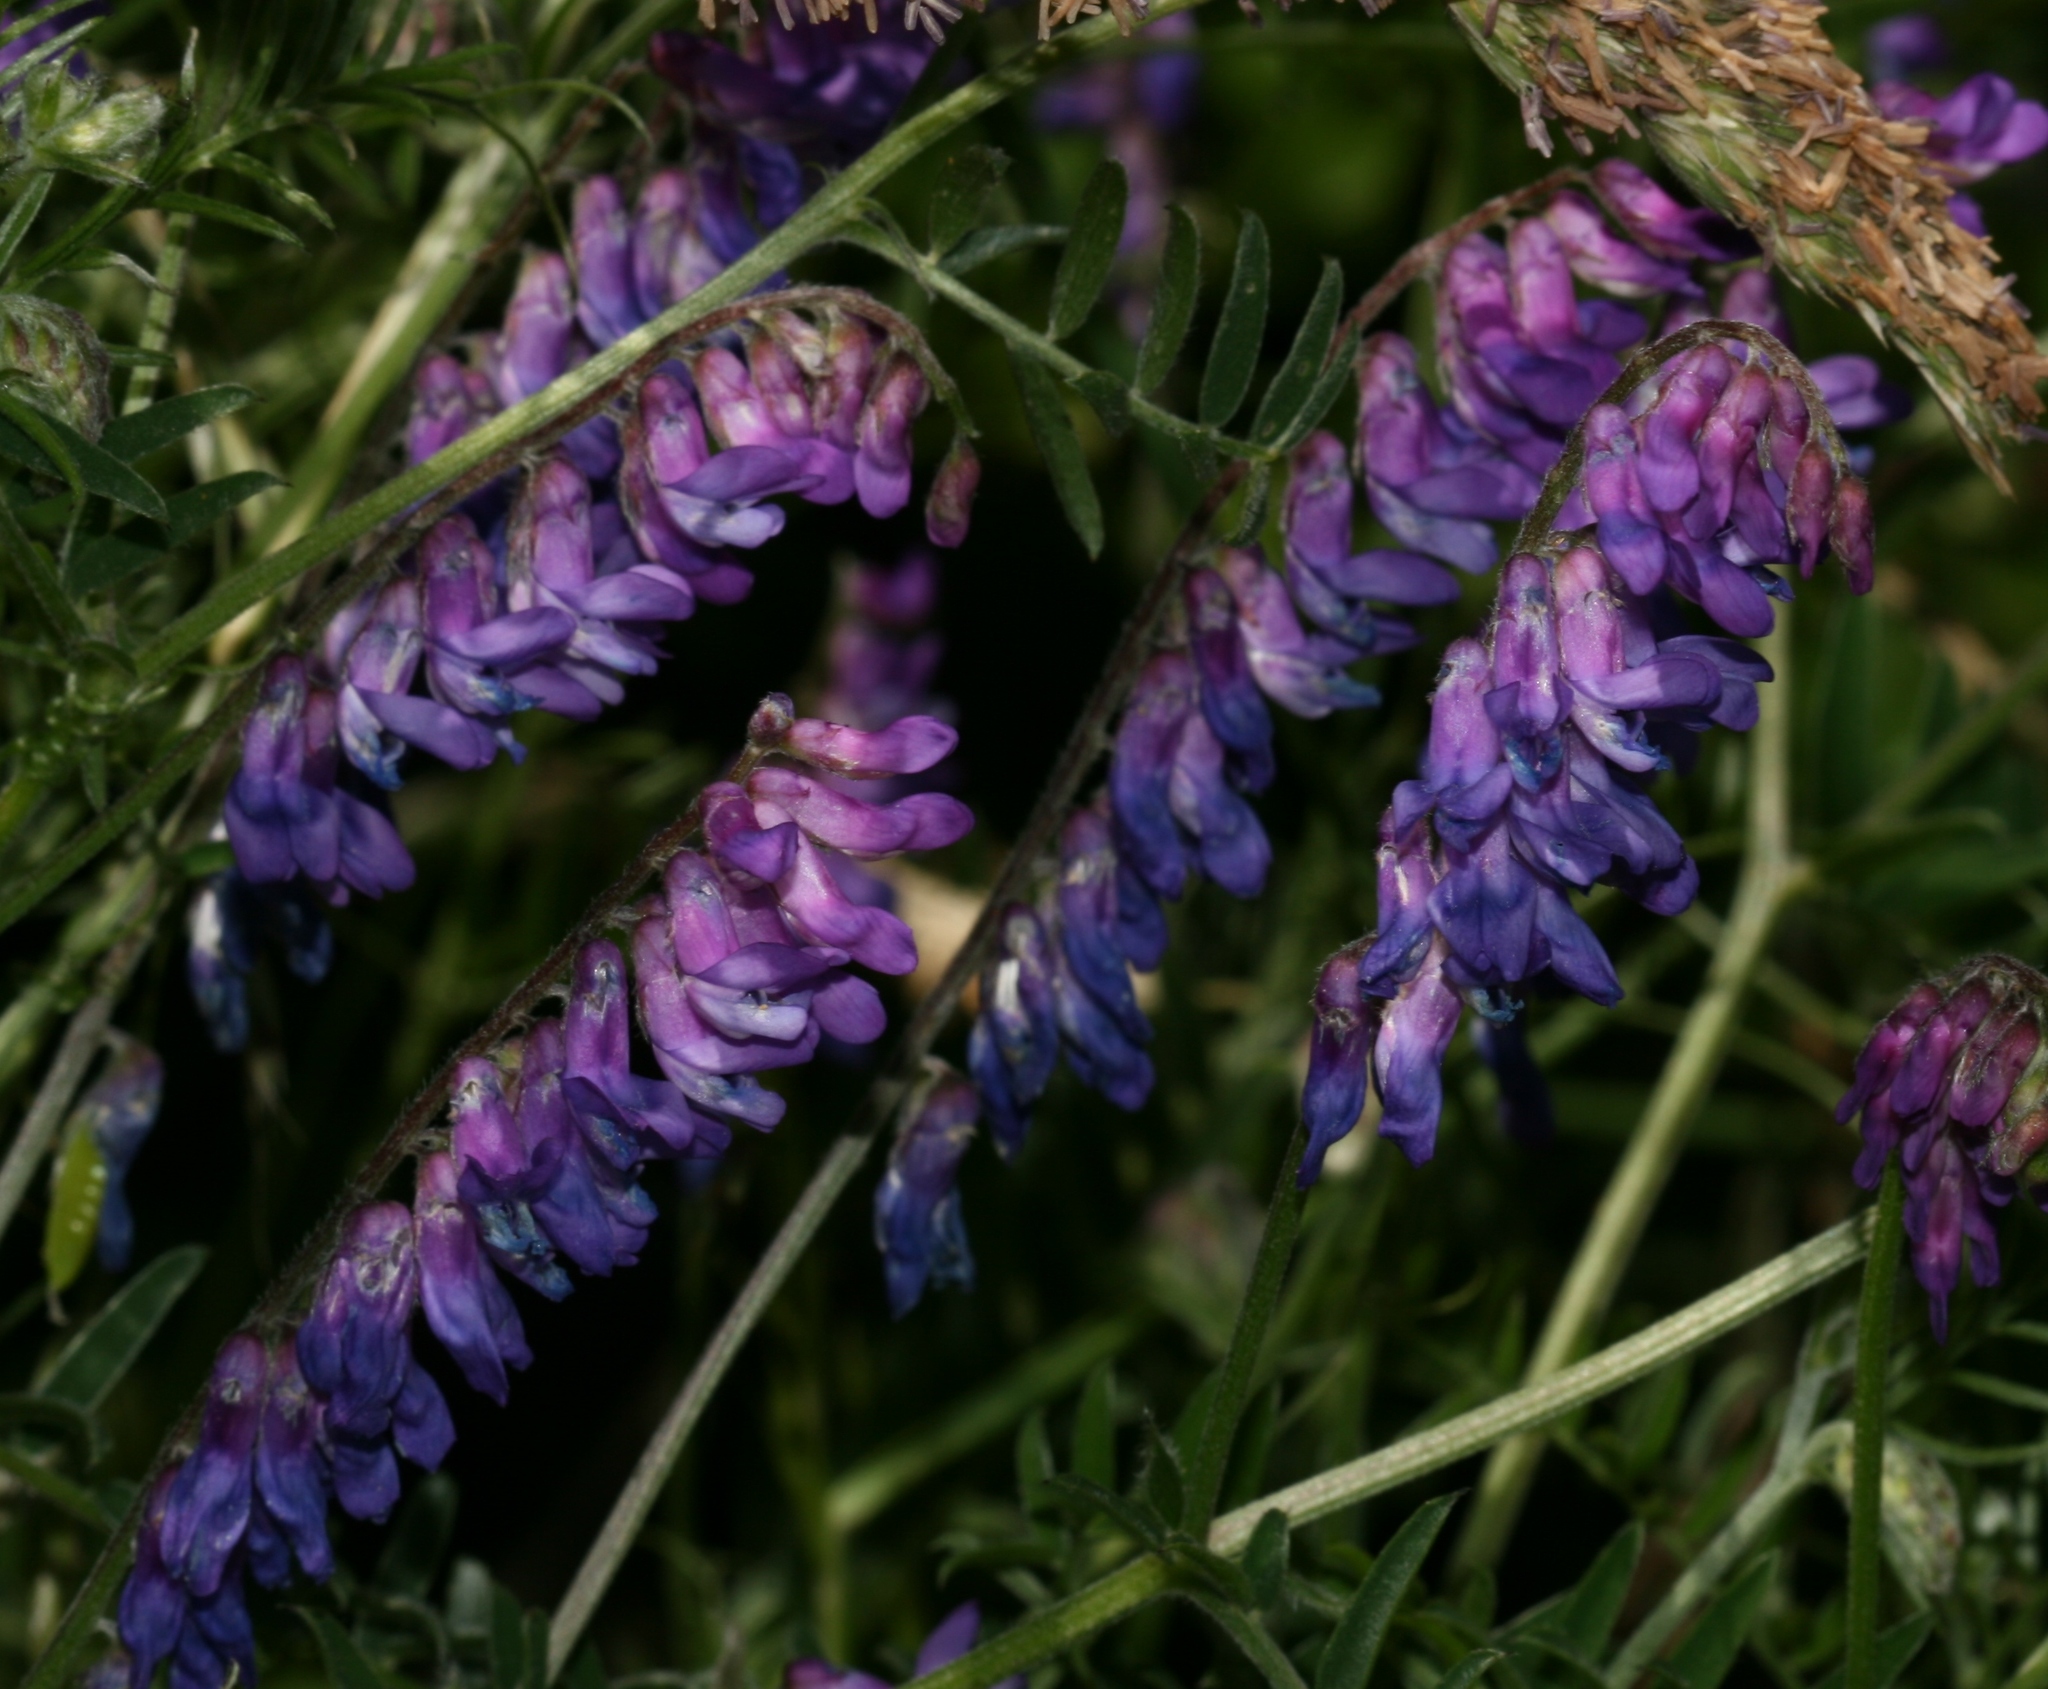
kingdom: Plantae
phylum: Tracheophyta
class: Magnoliopsida
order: Fabales
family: Fabaceae
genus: Vicia
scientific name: Vicia cracca
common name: Bird vetch
